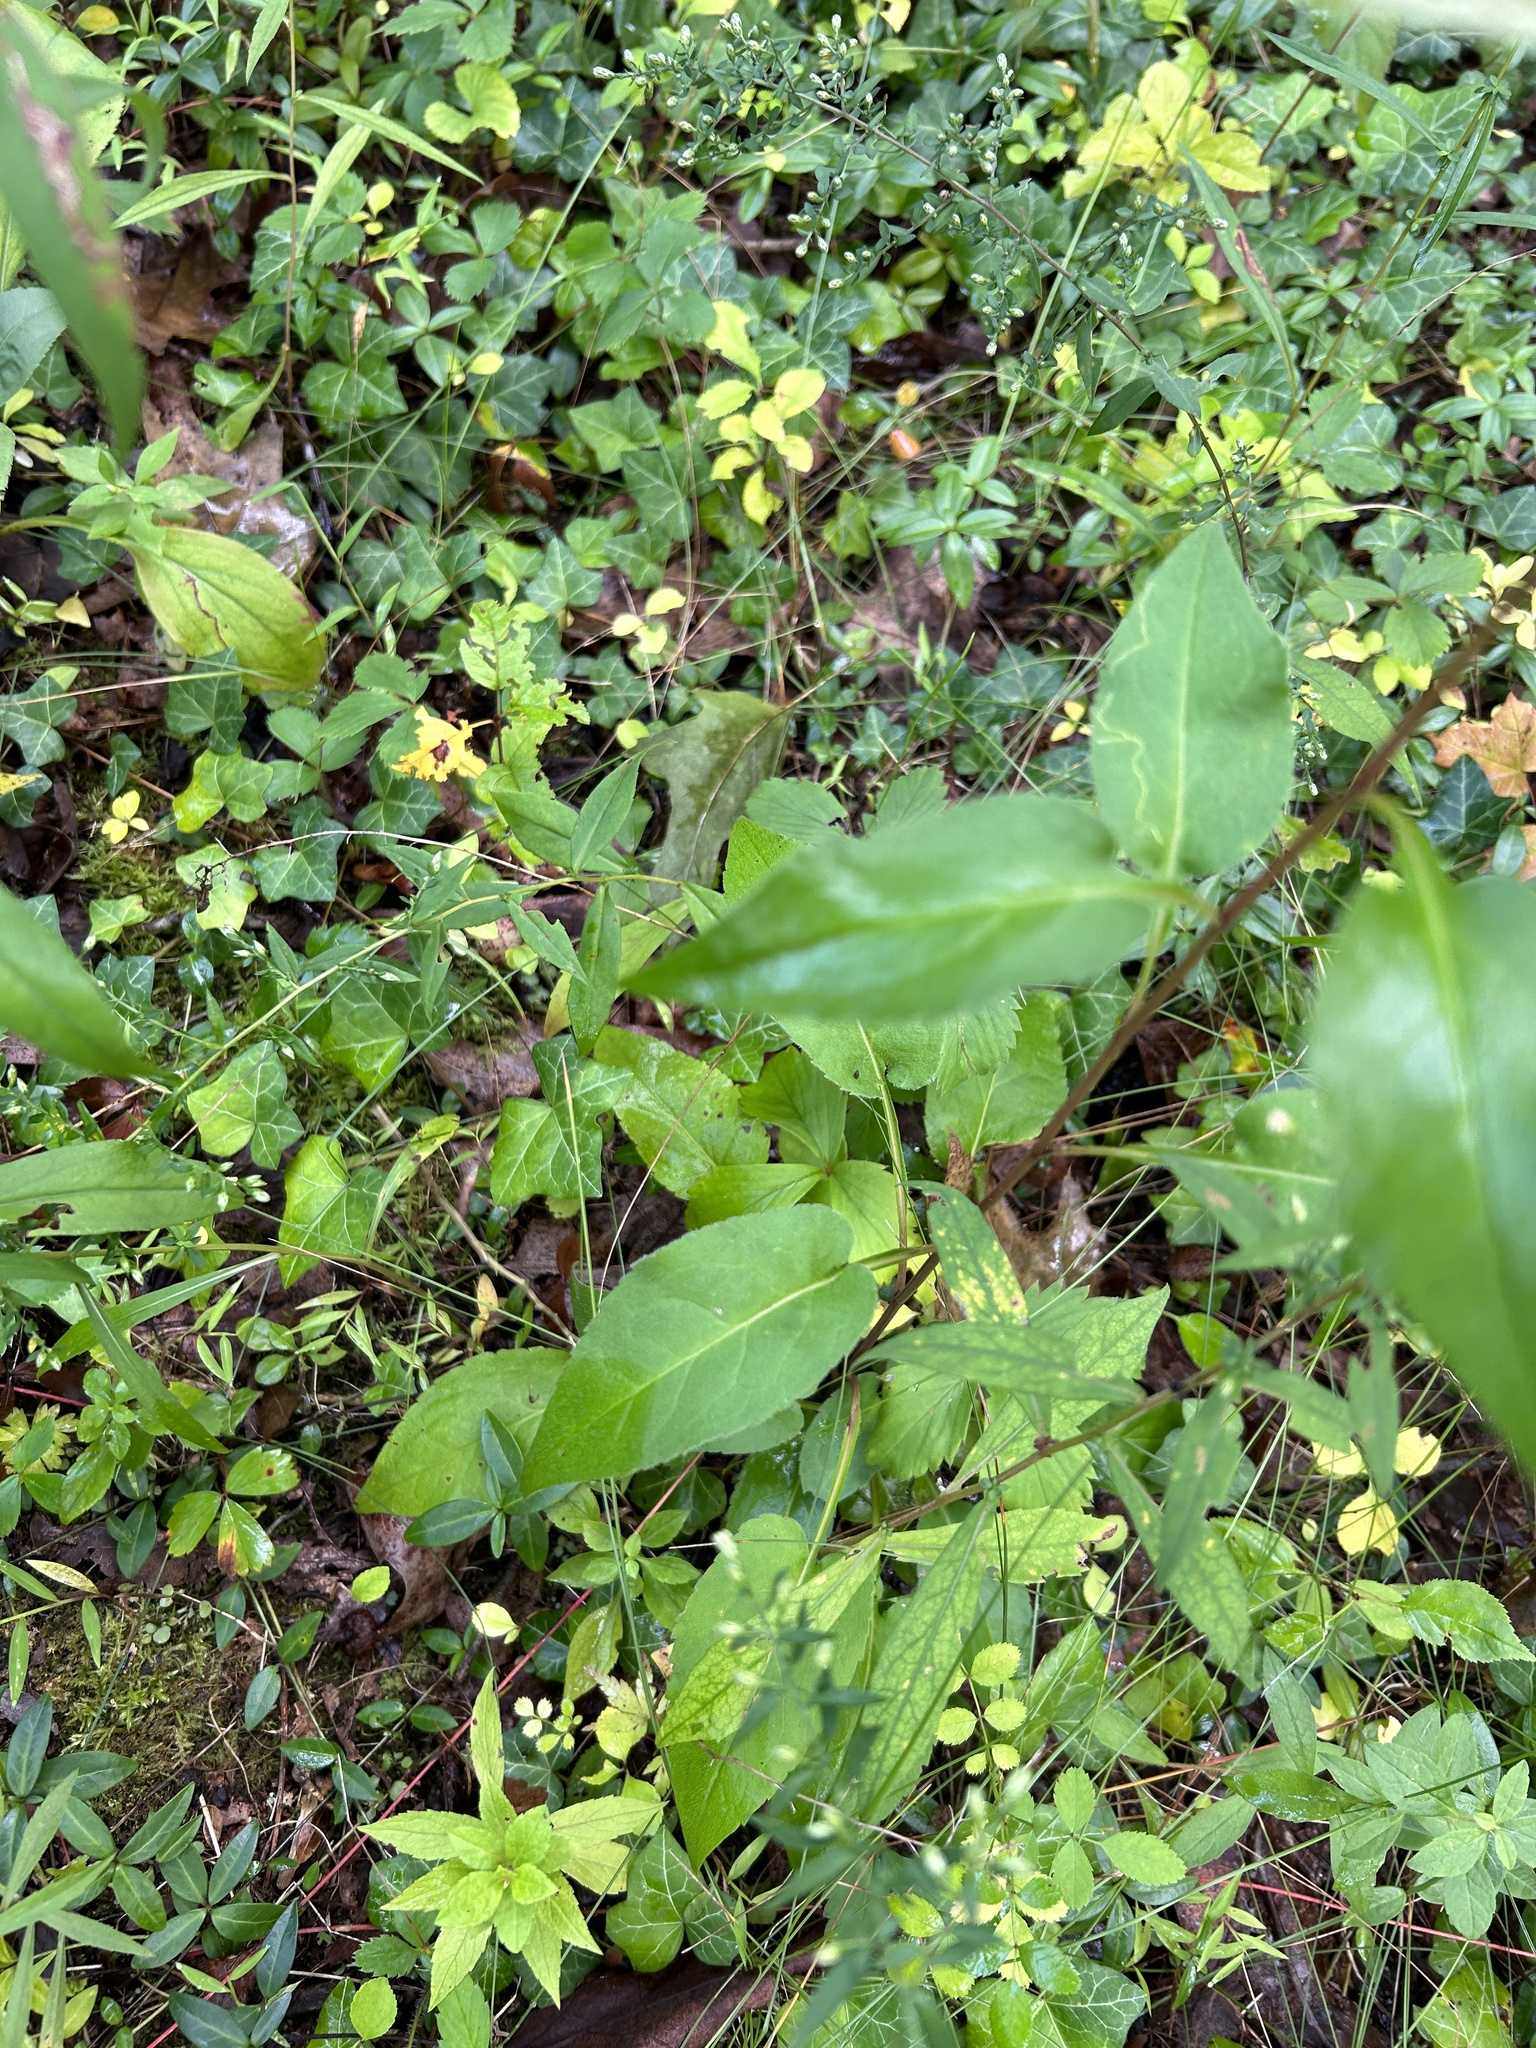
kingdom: Plantae
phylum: Tracheophyta
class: Magnoliopsida
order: Asterales
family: Asteraceae
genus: Symphyotrichum
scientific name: Symphyotrichum urophyllum
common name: Arrow-leaved aster
